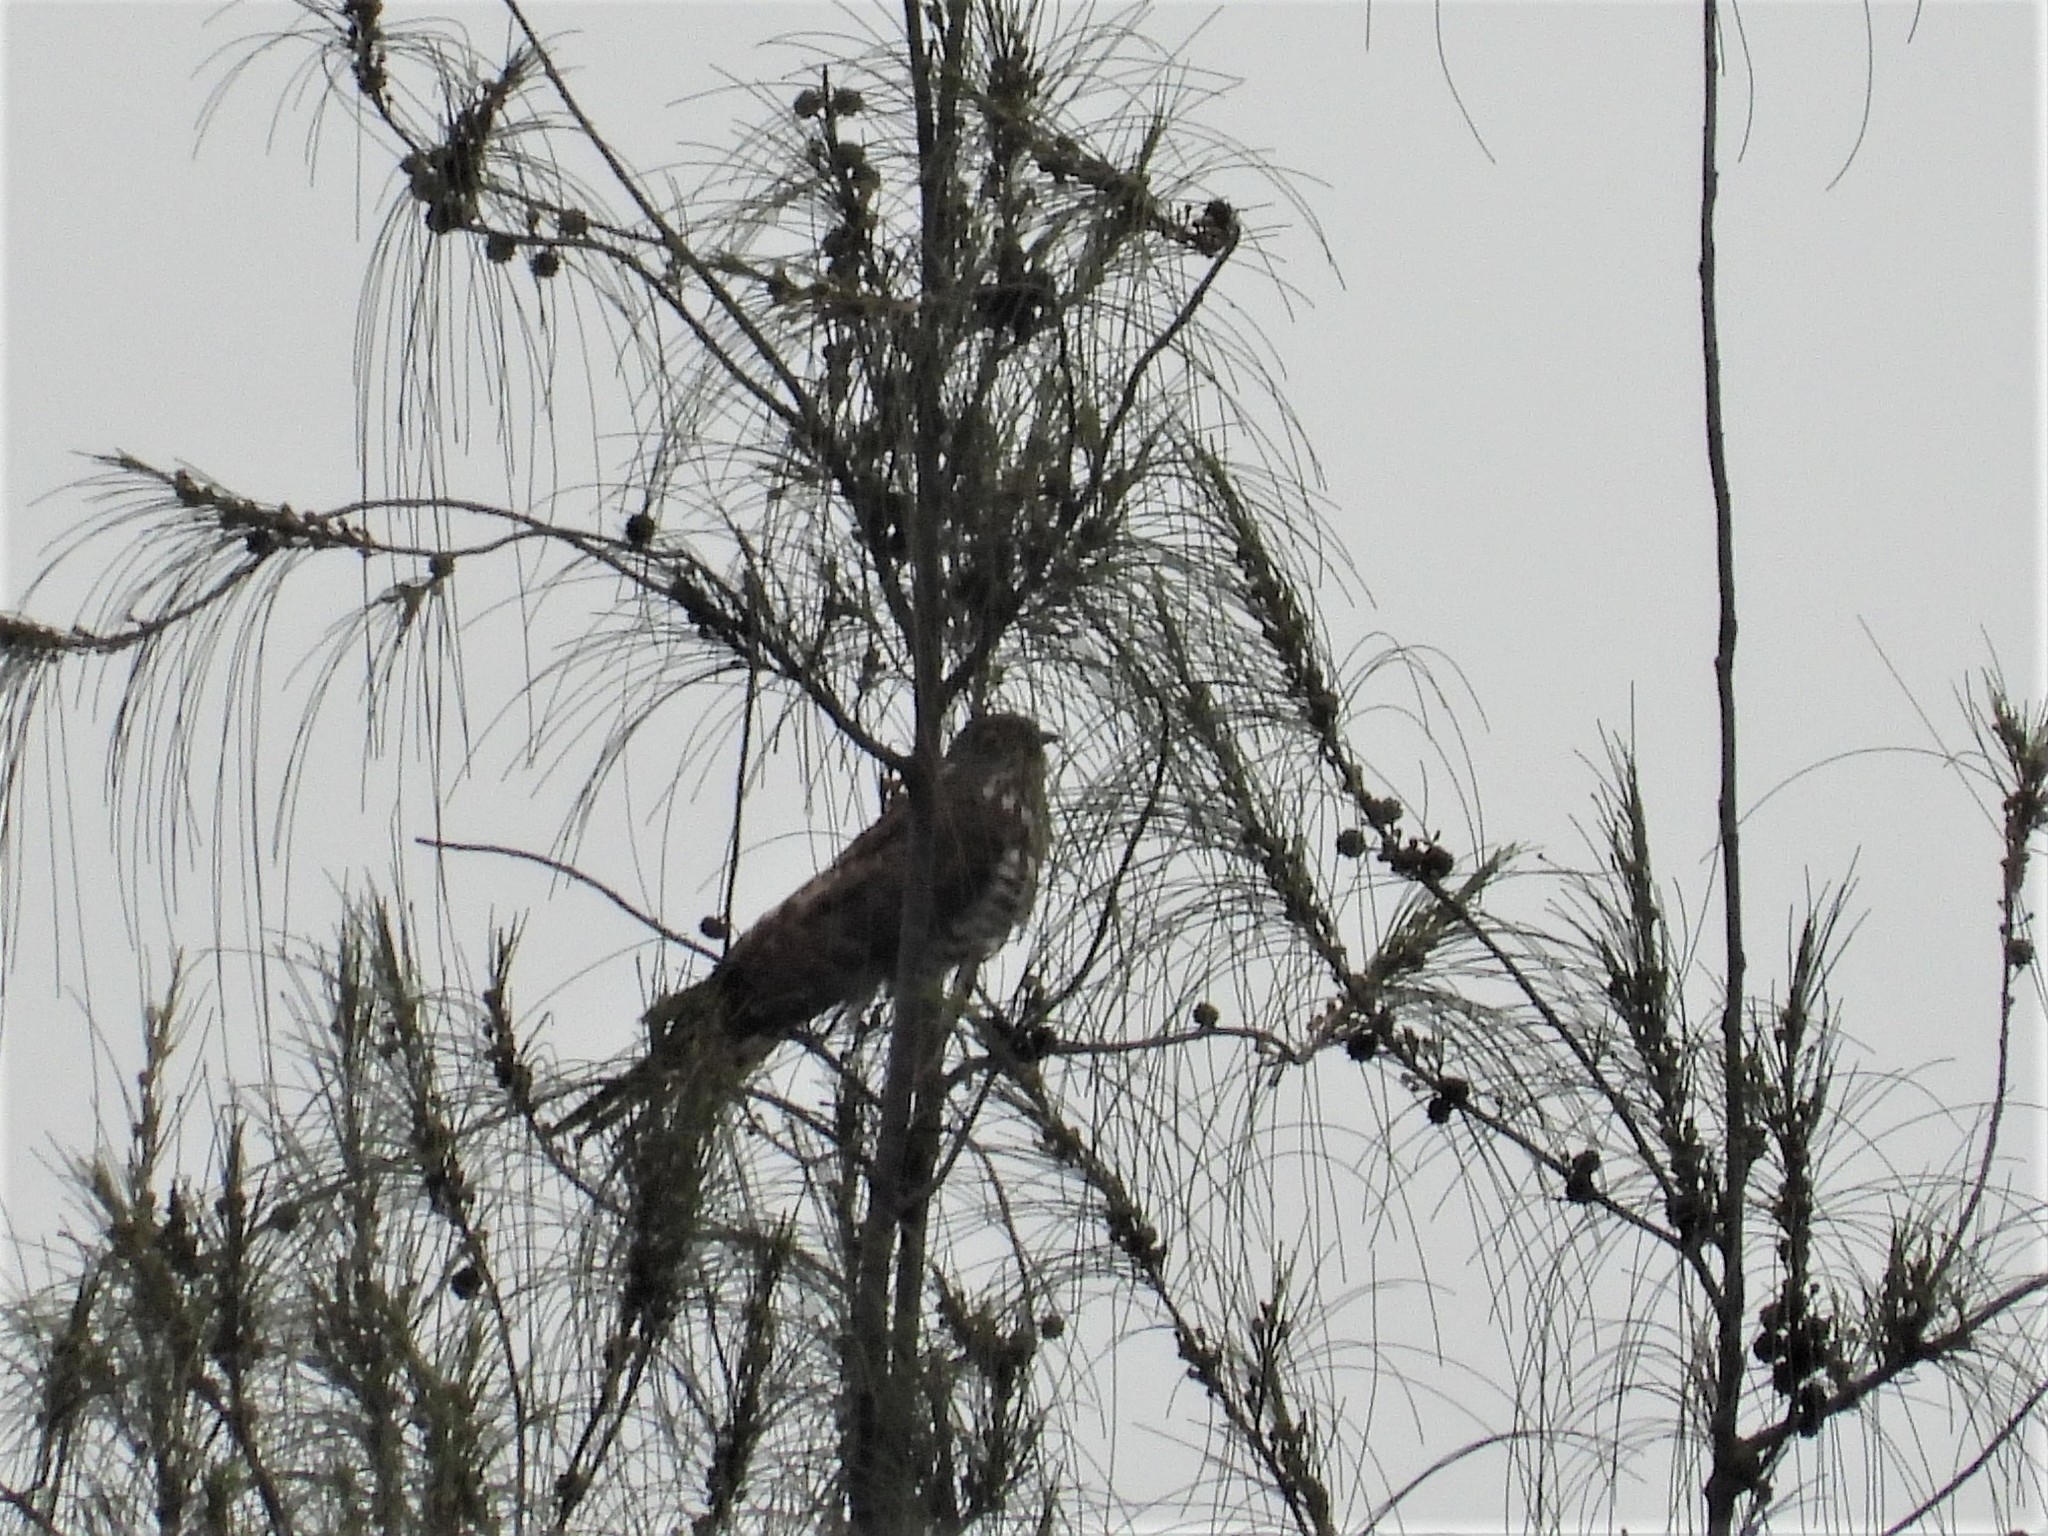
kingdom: Animalia
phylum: Chordata
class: Aves
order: Cuculiformes
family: Cuculidae
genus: Cuculus
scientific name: Cuculus sparverioides
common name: Large hawk cuckoo
